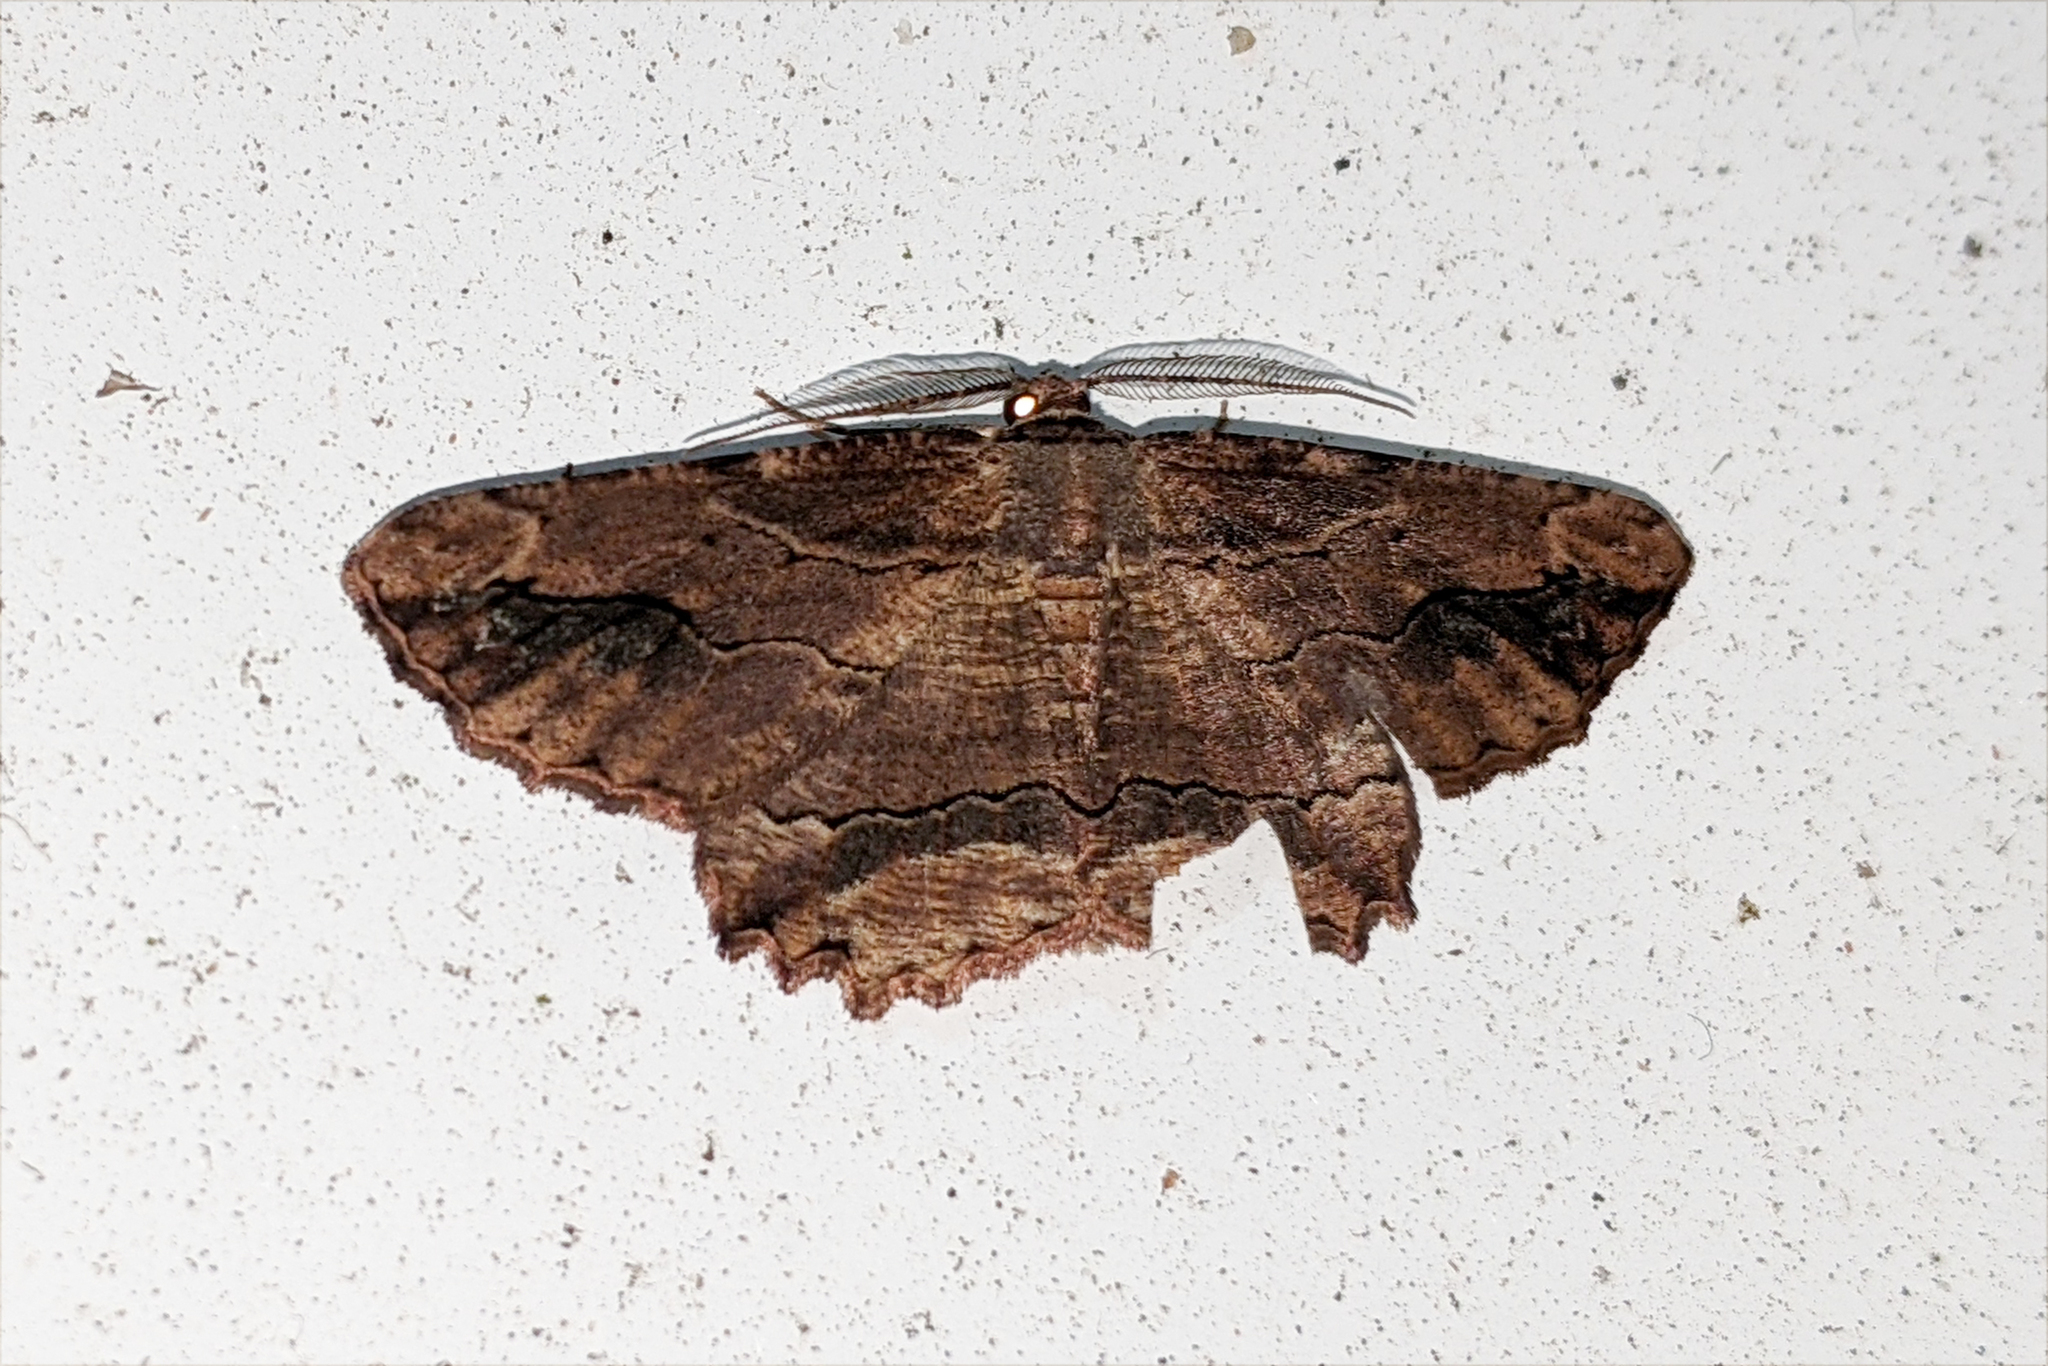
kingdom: Animalia
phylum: Arthropoda
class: Insecta
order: Lepidoptera
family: Geometridae
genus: Menophra
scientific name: Menophra abruptaria
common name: Waved umber
